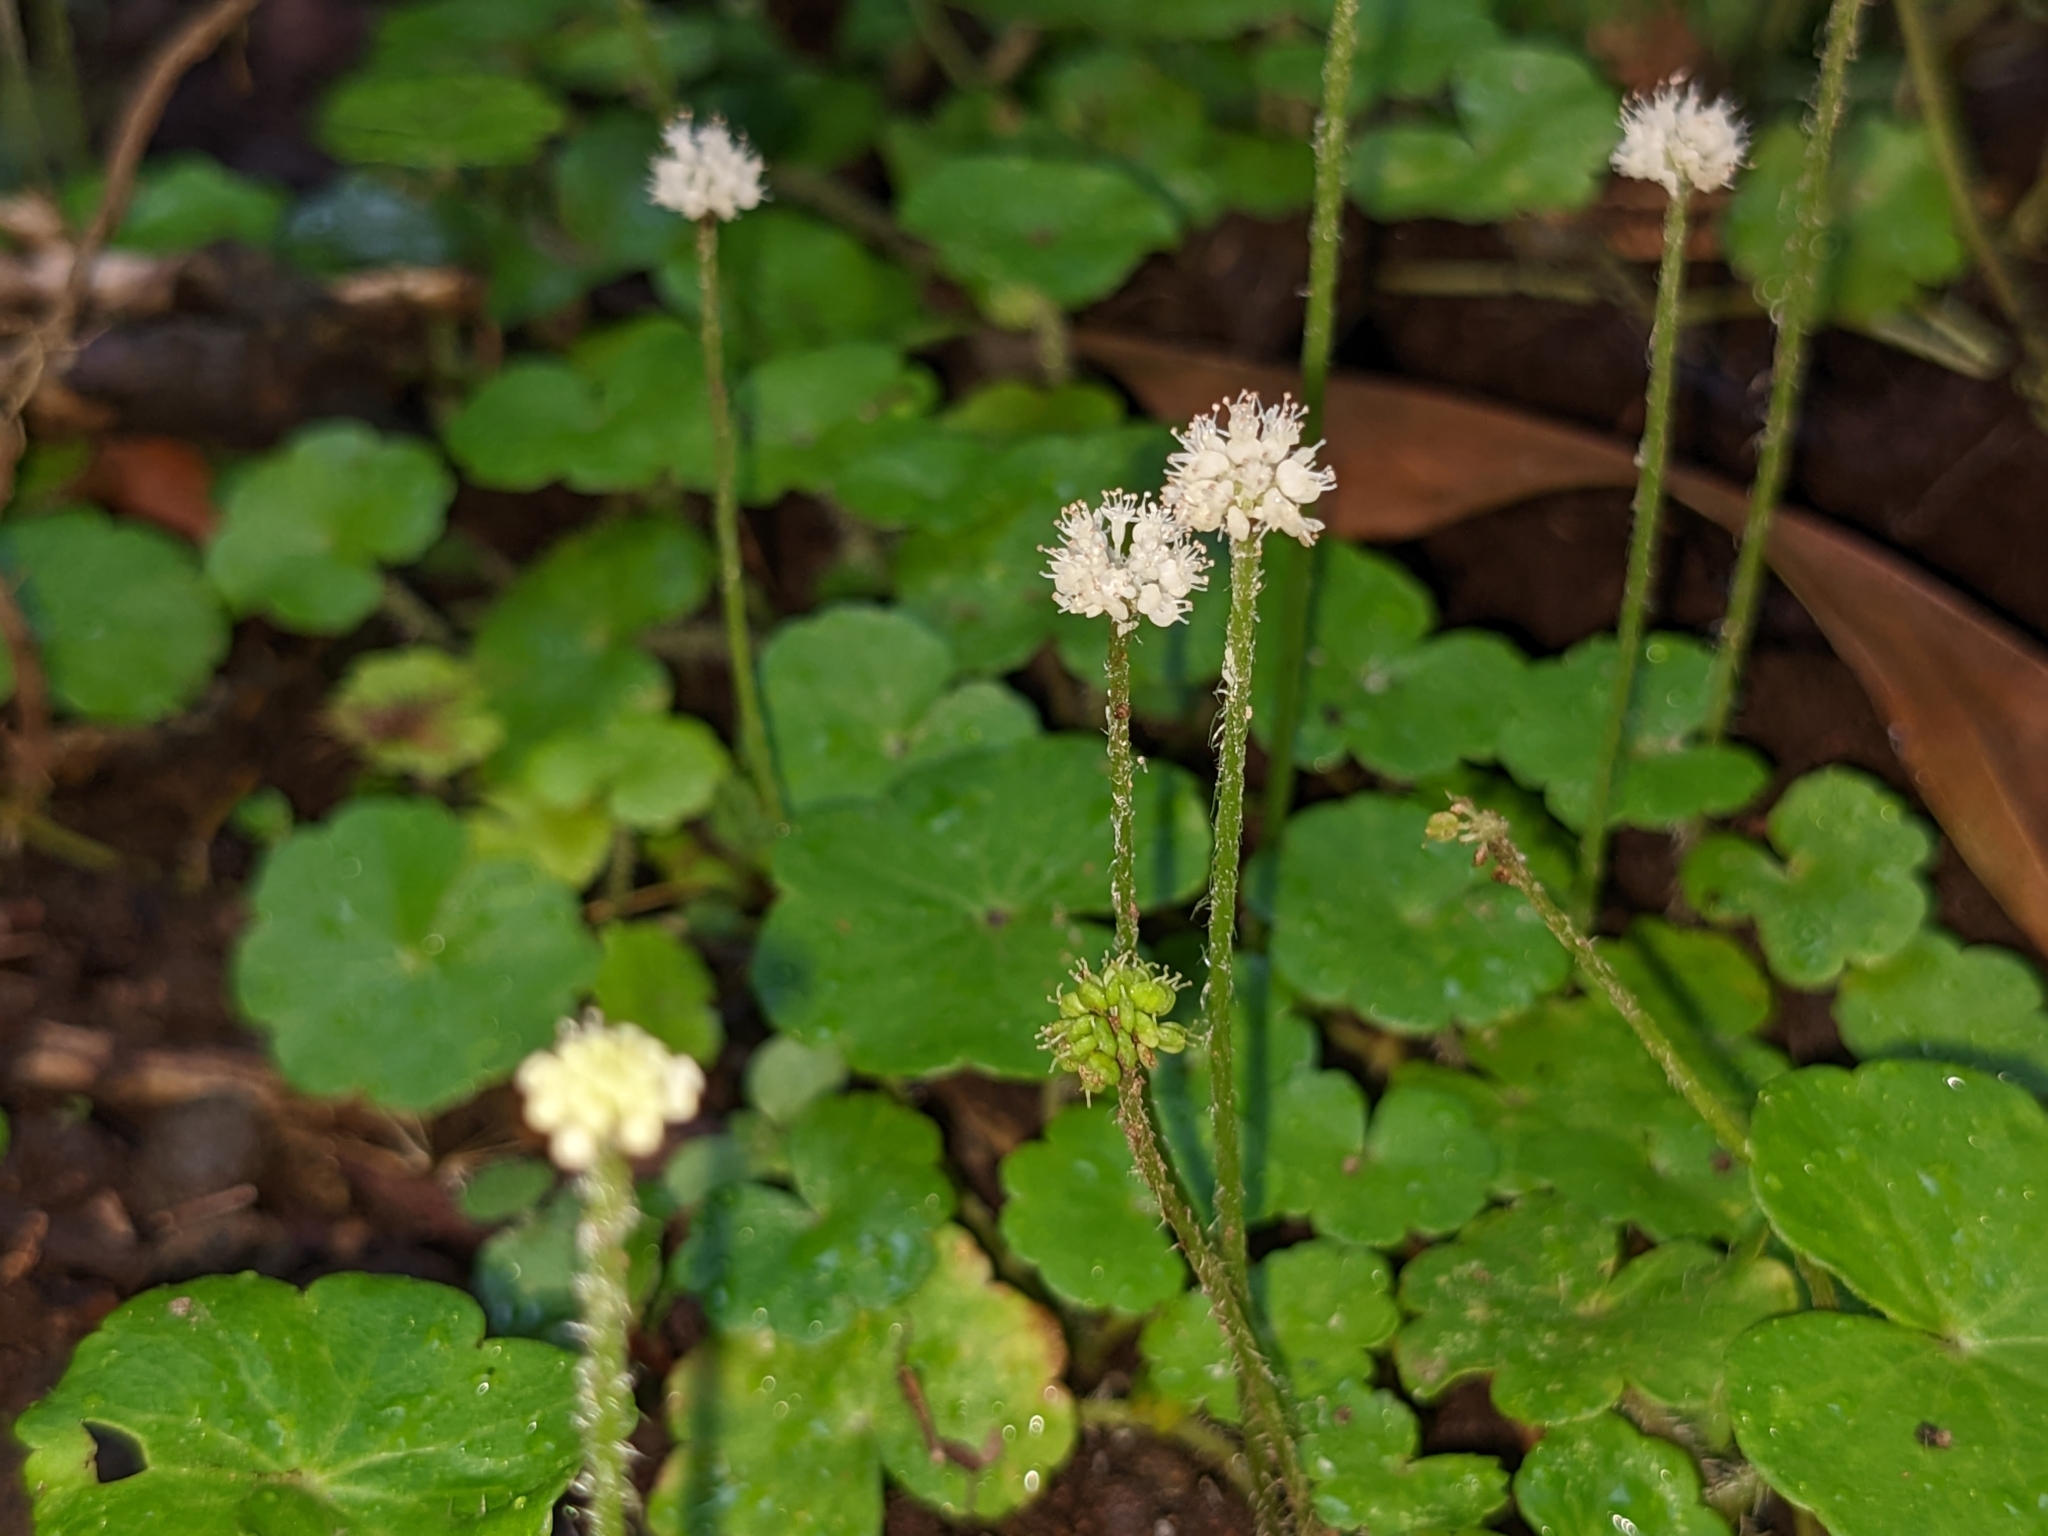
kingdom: Plantae
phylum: Tracheophyta
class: Magnoliopsida
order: Apiales
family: Araliaceae
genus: Hydrocotyle
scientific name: Hydrocotyle leucocephala
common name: Brazilian pennywort
